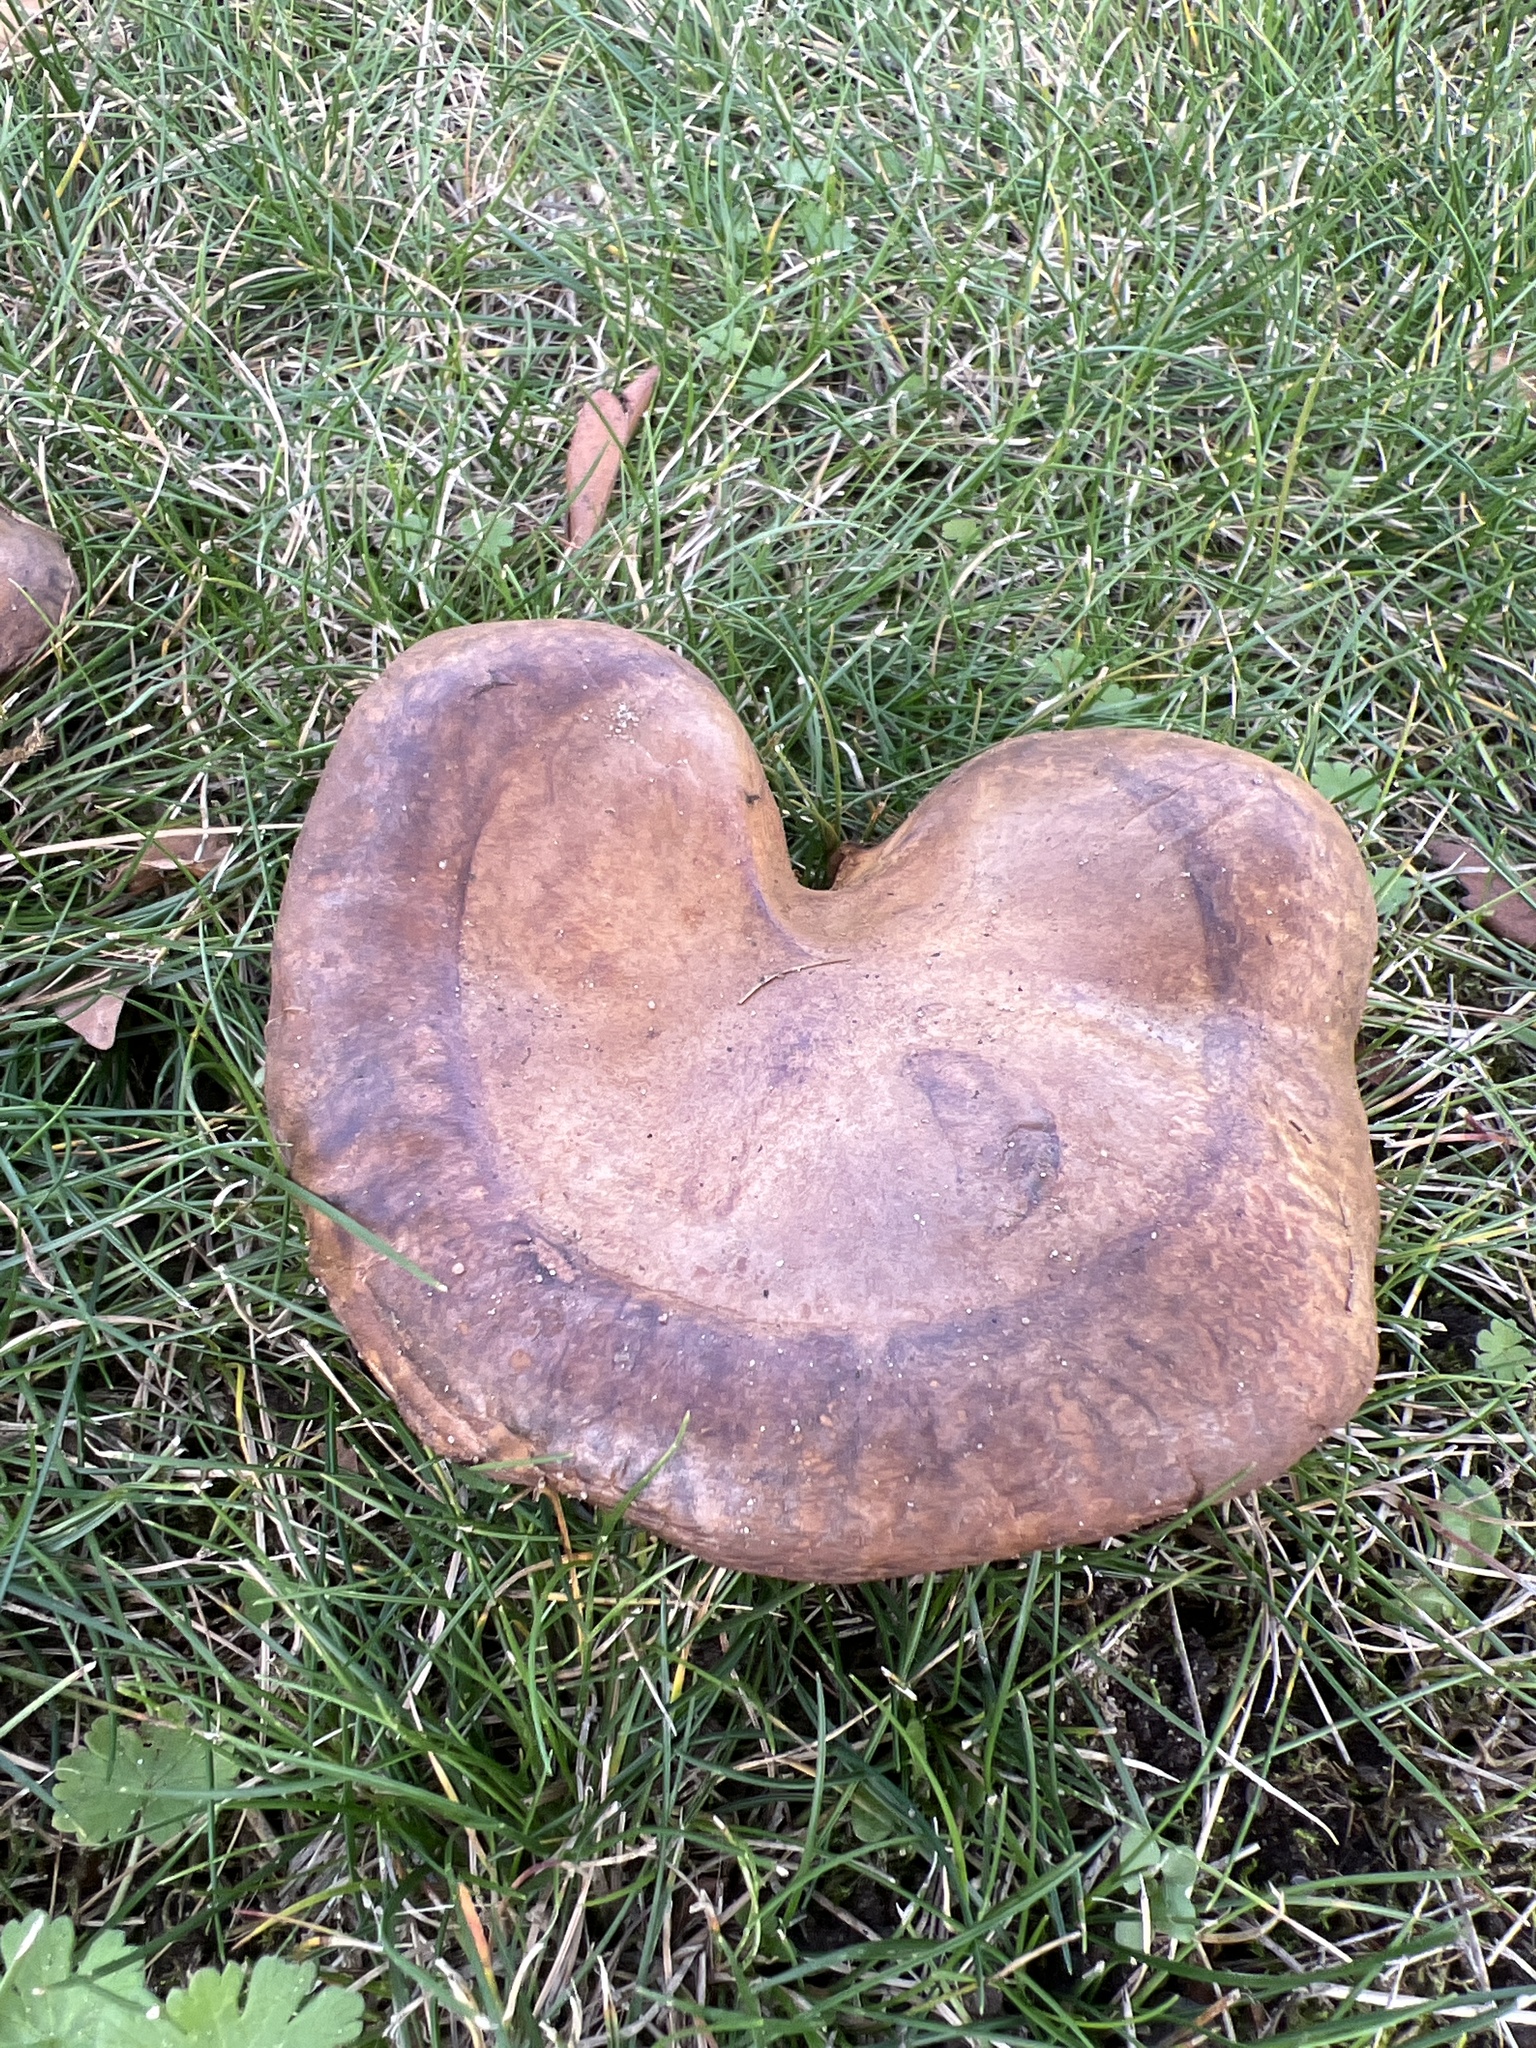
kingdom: Fungi
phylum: Basidiomycota
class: Agaricomycetes
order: Boletales
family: Paxillaceae
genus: Paxillus
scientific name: Paxillus involutus
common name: Brown roll rim
